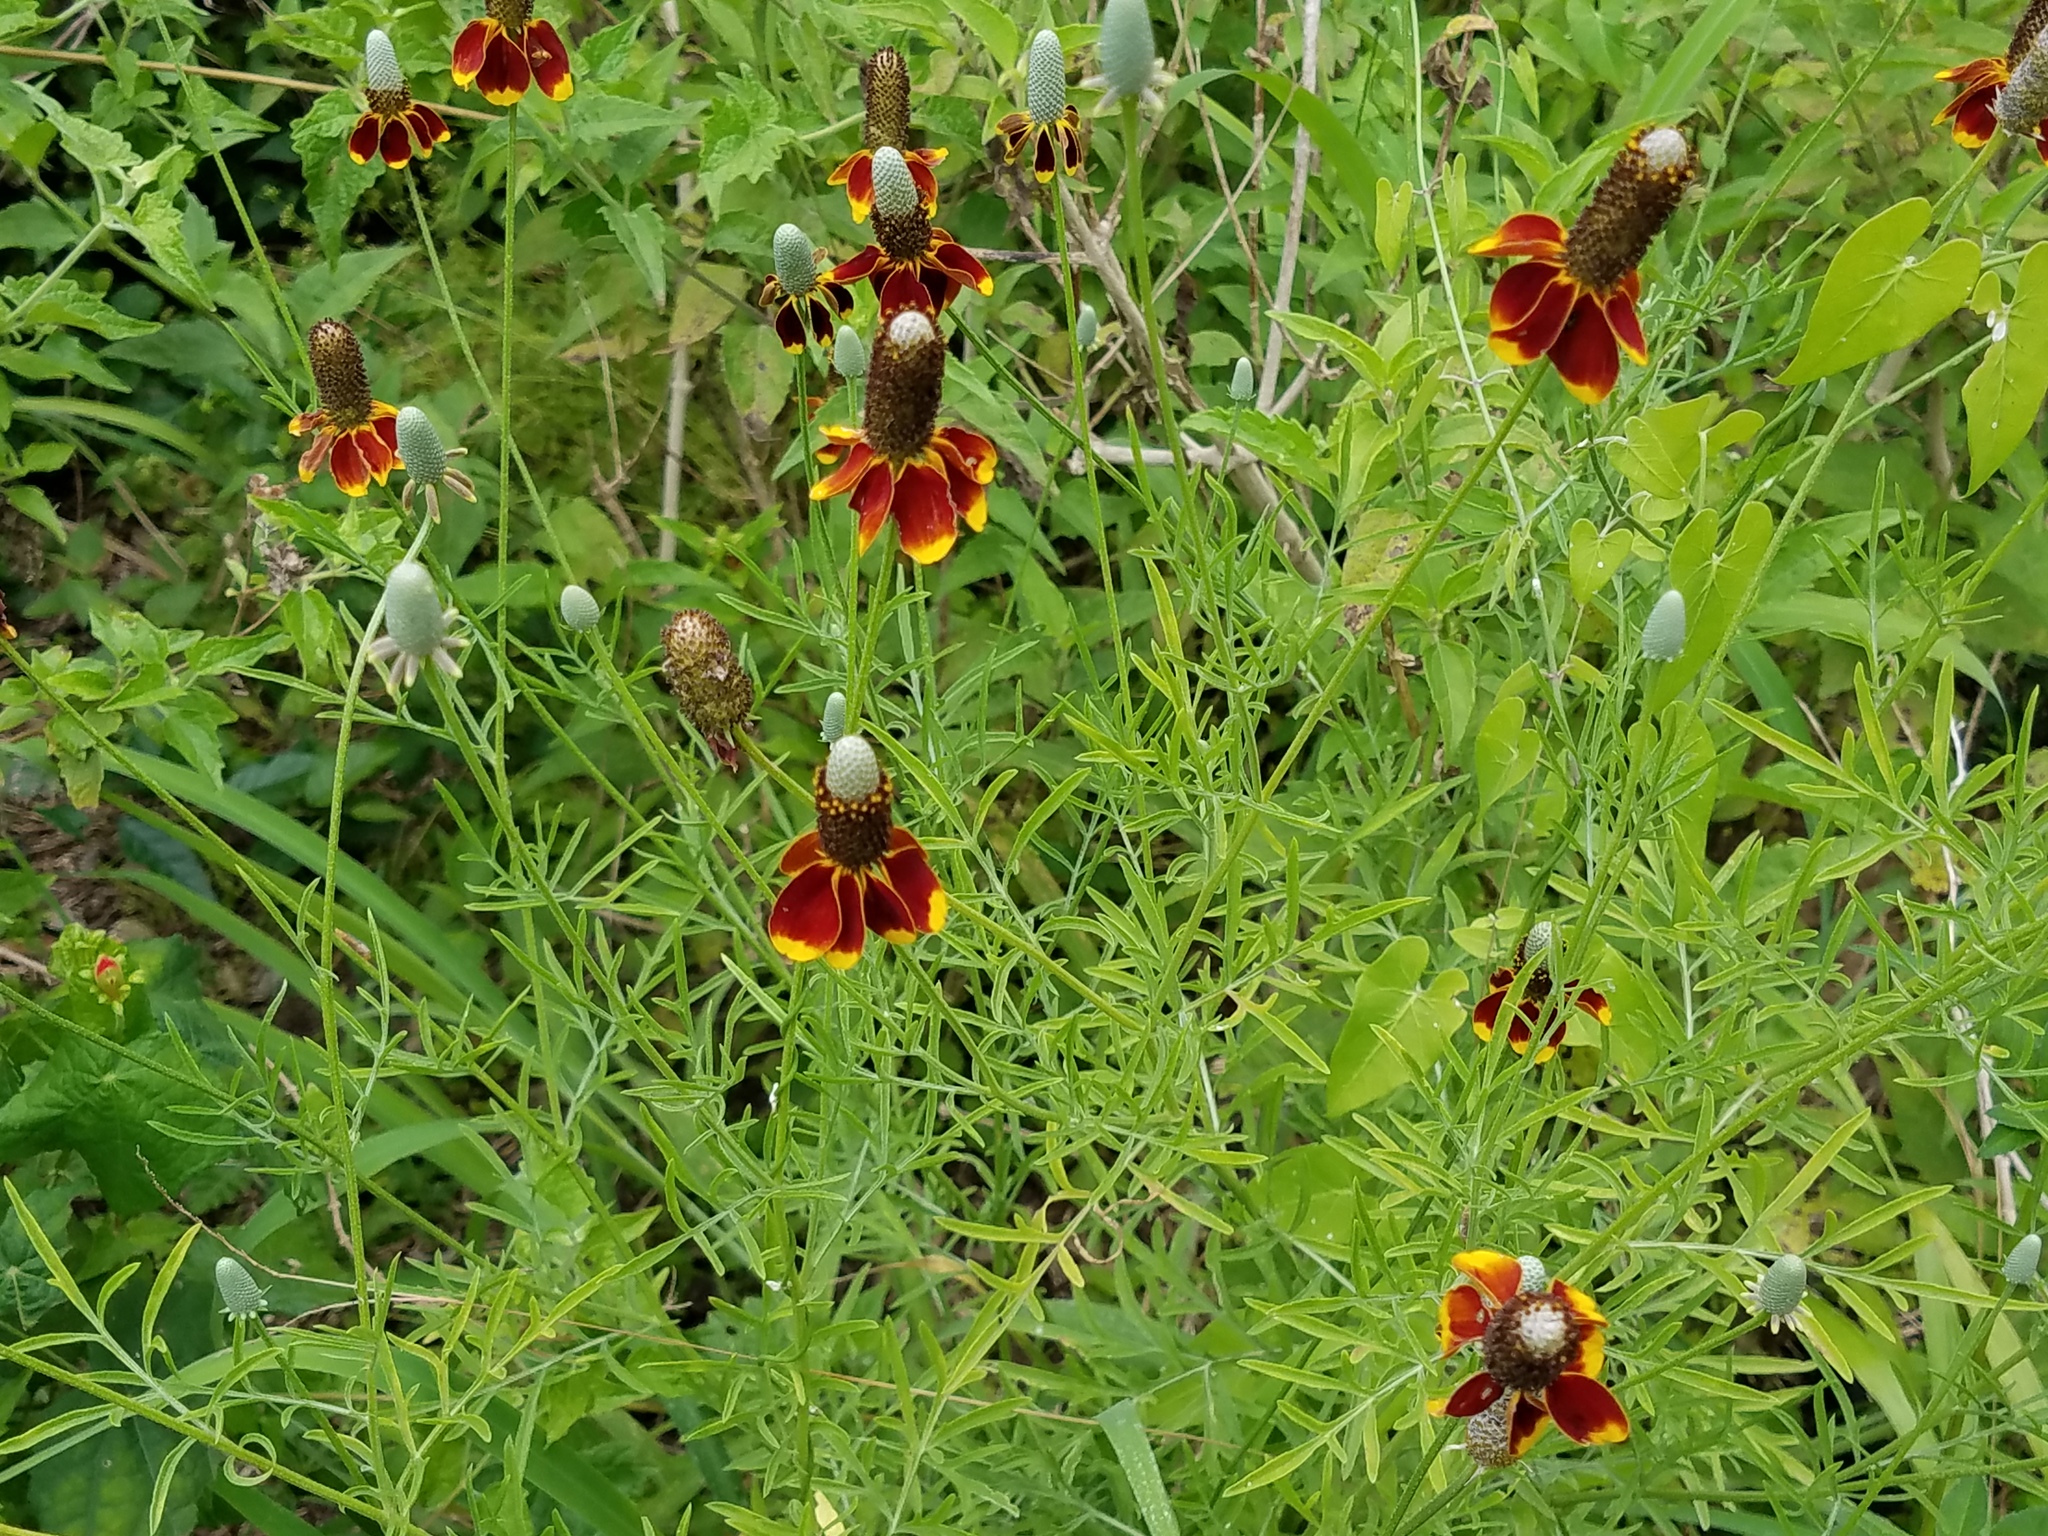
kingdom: Plantae
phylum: Tracheophyta
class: Magnoliopsida
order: Asterales
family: Asteraceae
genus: Ratibida
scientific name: Ratibida columnifera
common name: Prairie coneflower
